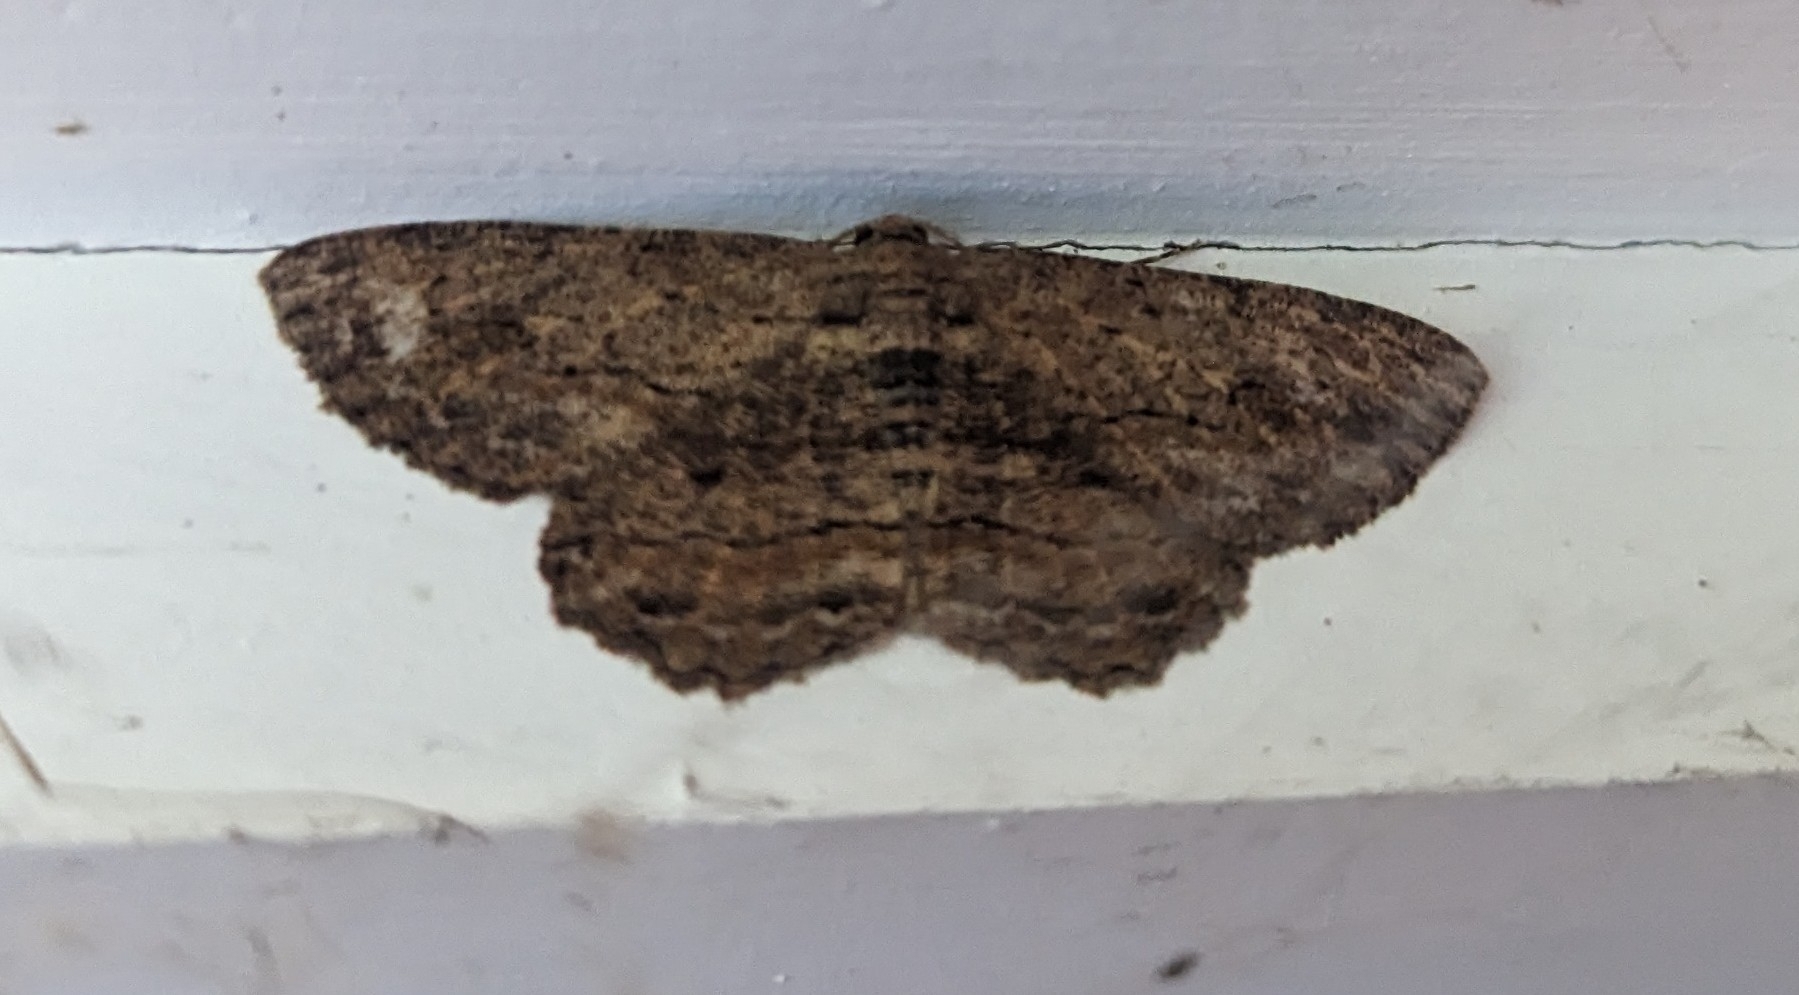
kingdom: Animalia
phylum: Arthropoda
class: Insecta
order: Lepidoptera
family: Geometridae
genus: Ectropis
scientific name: Ectropis excursaria
